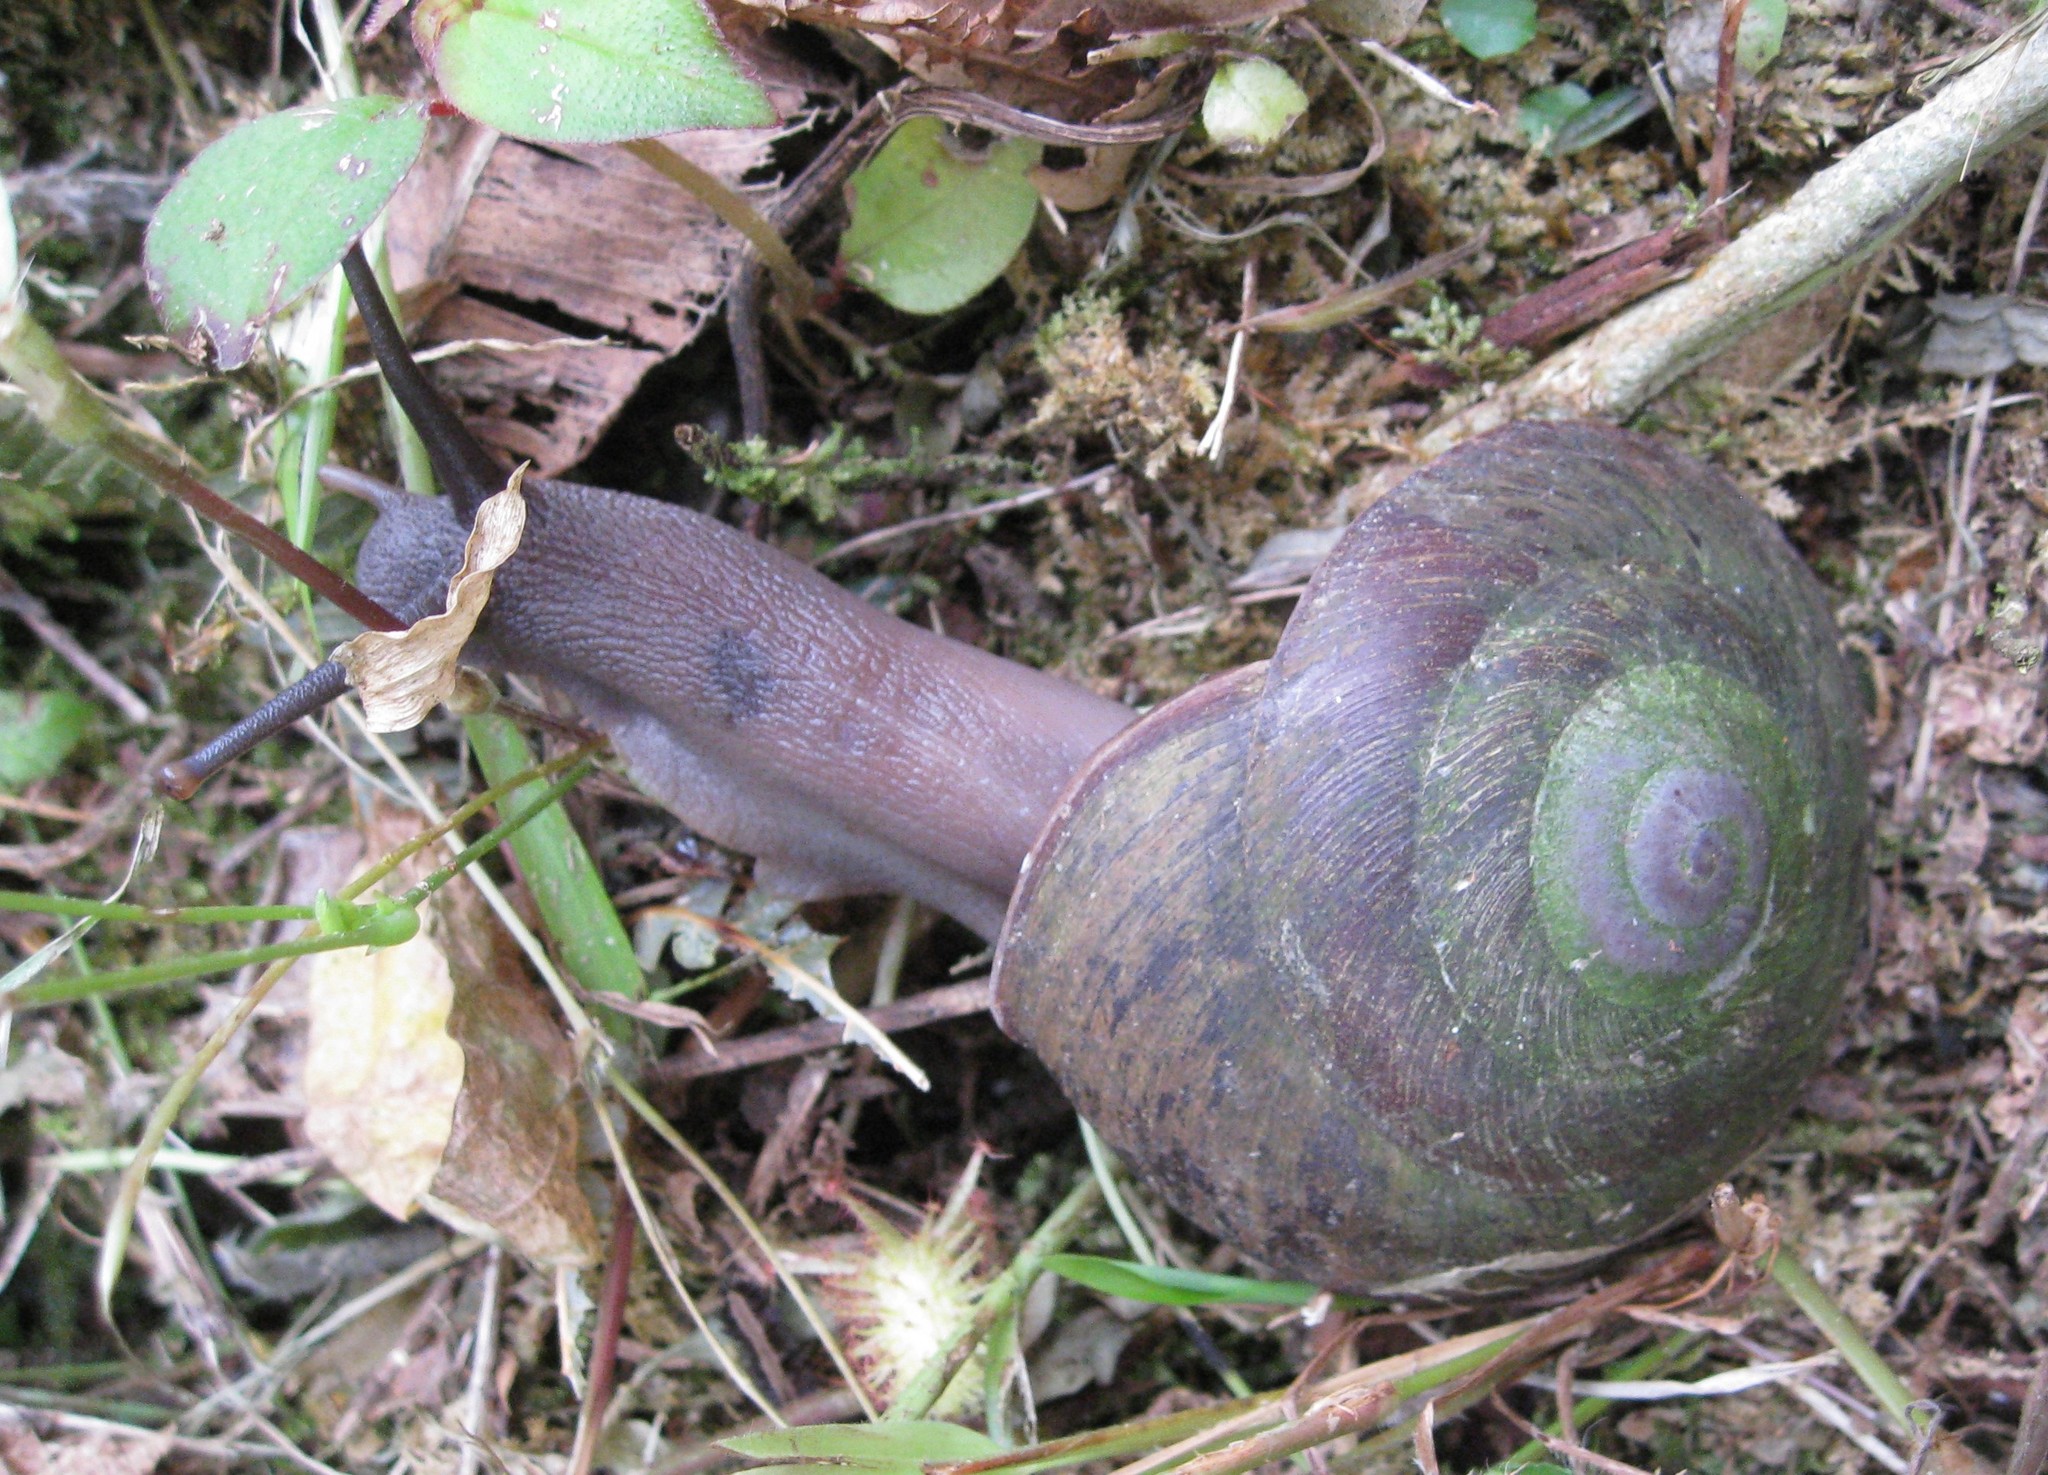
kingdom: Animalia
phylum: Mollusca
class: Gastropoda
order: Stylommatophora
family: Solaropsidae
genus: Caracolus
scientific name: Caracolus carocolla
